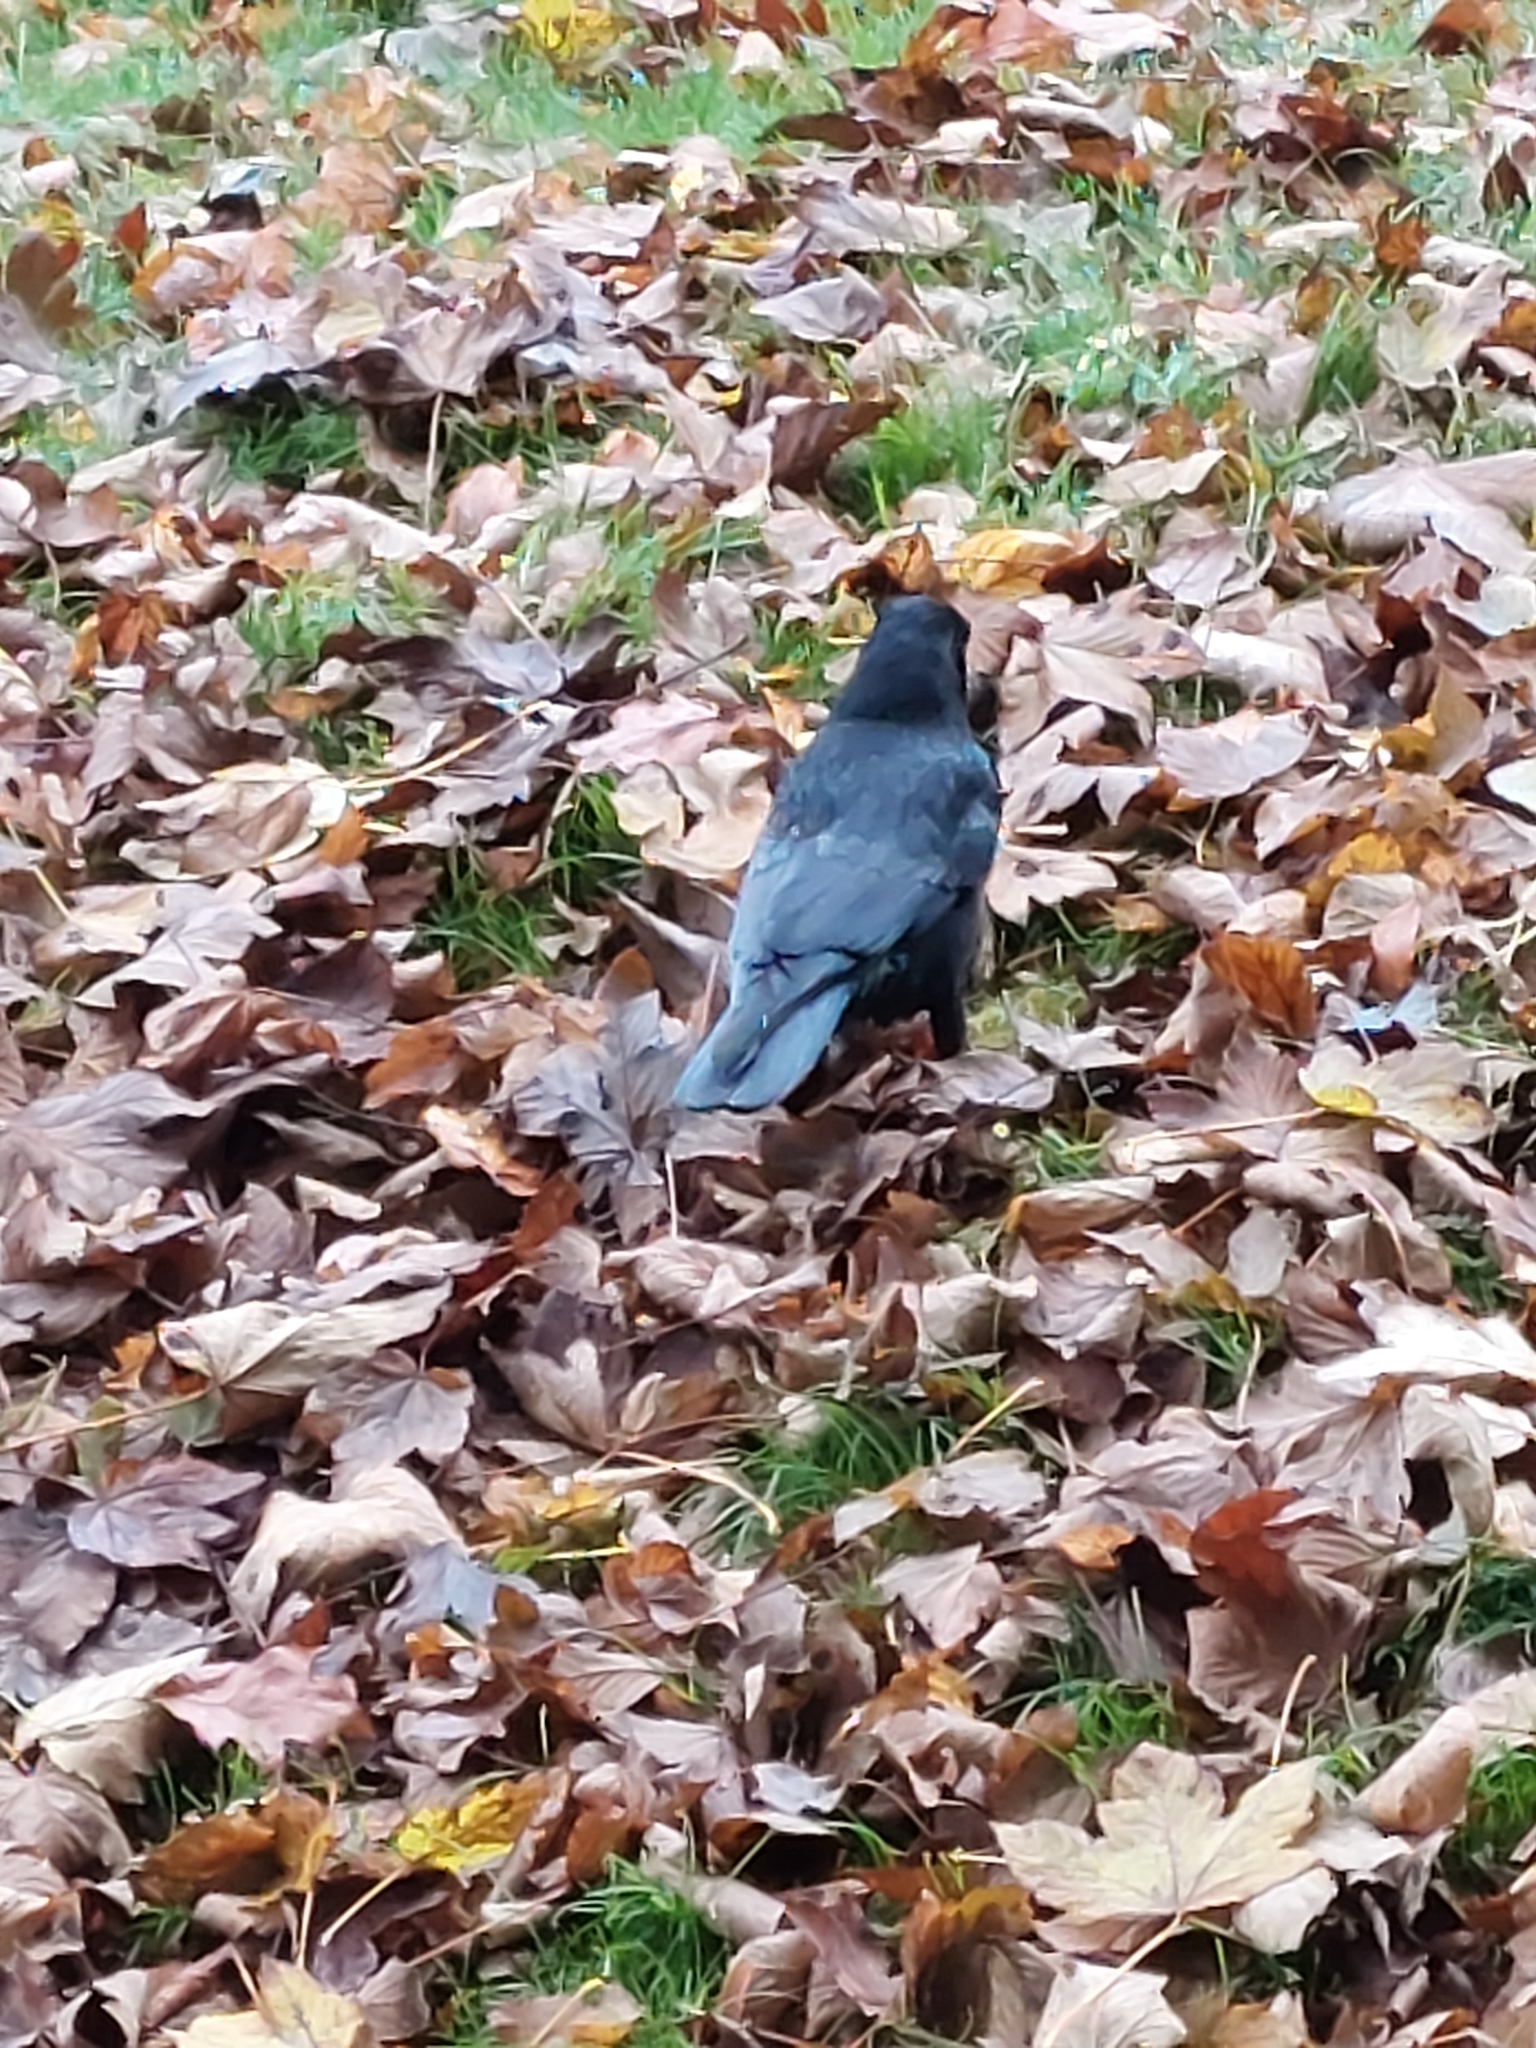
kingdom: Animalia
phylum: Chordata
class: Aves
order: Passeriformes
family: Corvidae
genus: Corvus
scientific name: Corvus corone
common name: Carrion crow
